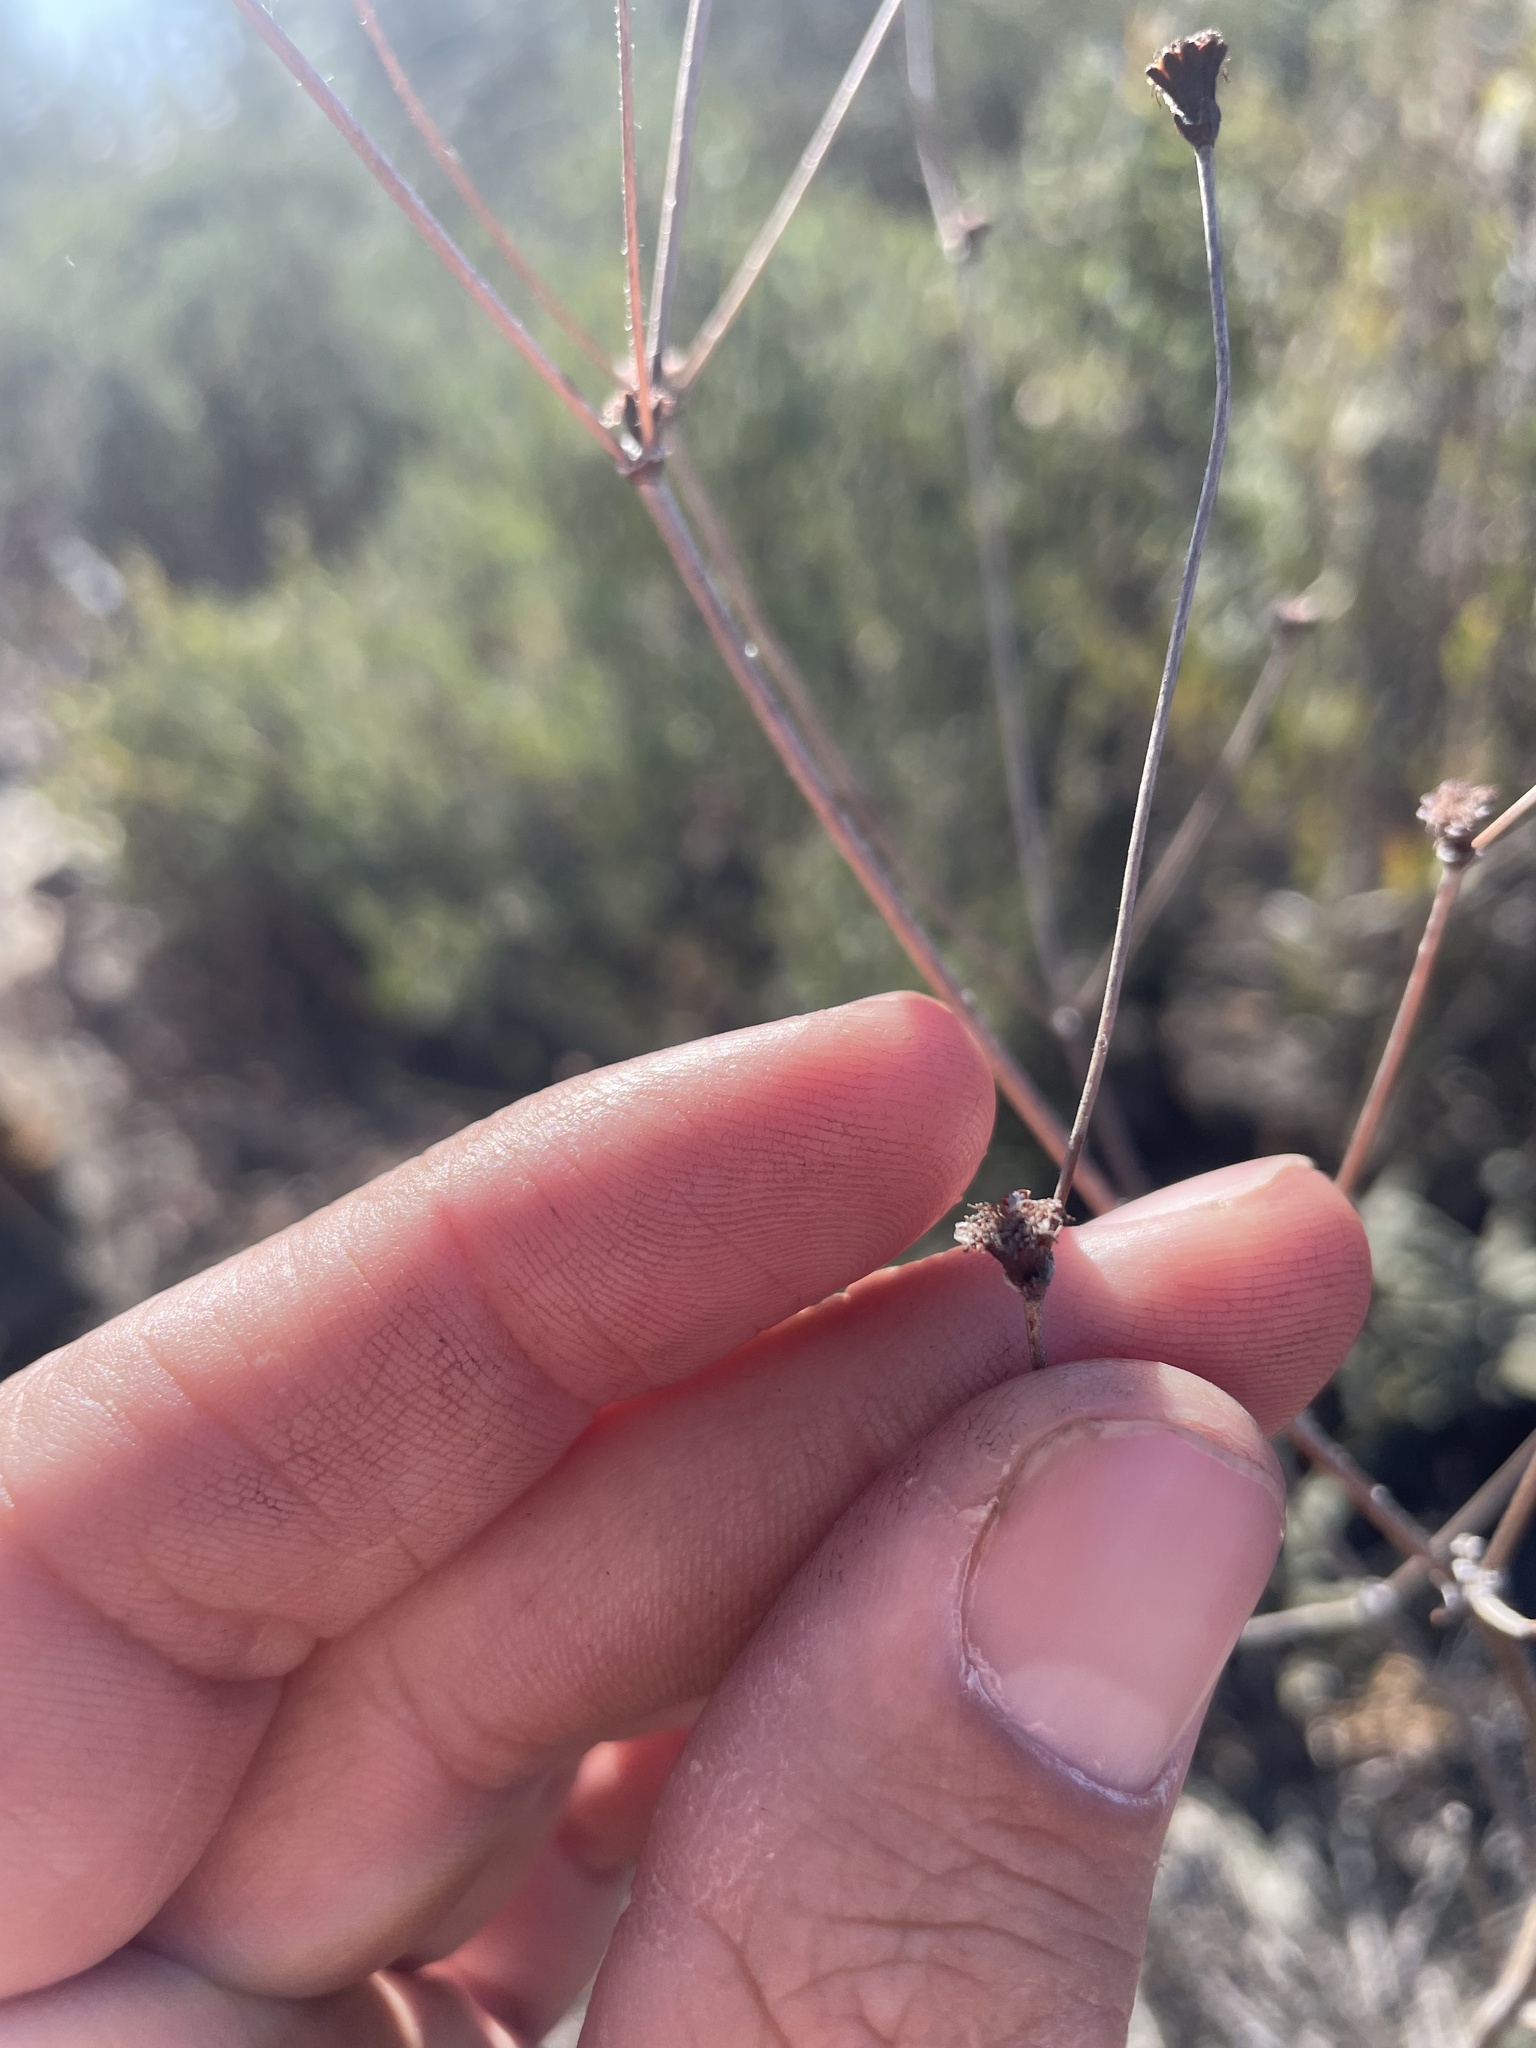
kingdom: Plantae
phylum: Tracheophyta
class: Magnoliopsida
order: Caryophyllales
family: Polygonaceae
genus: Eriogonum
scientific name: Eriogonum nudum
